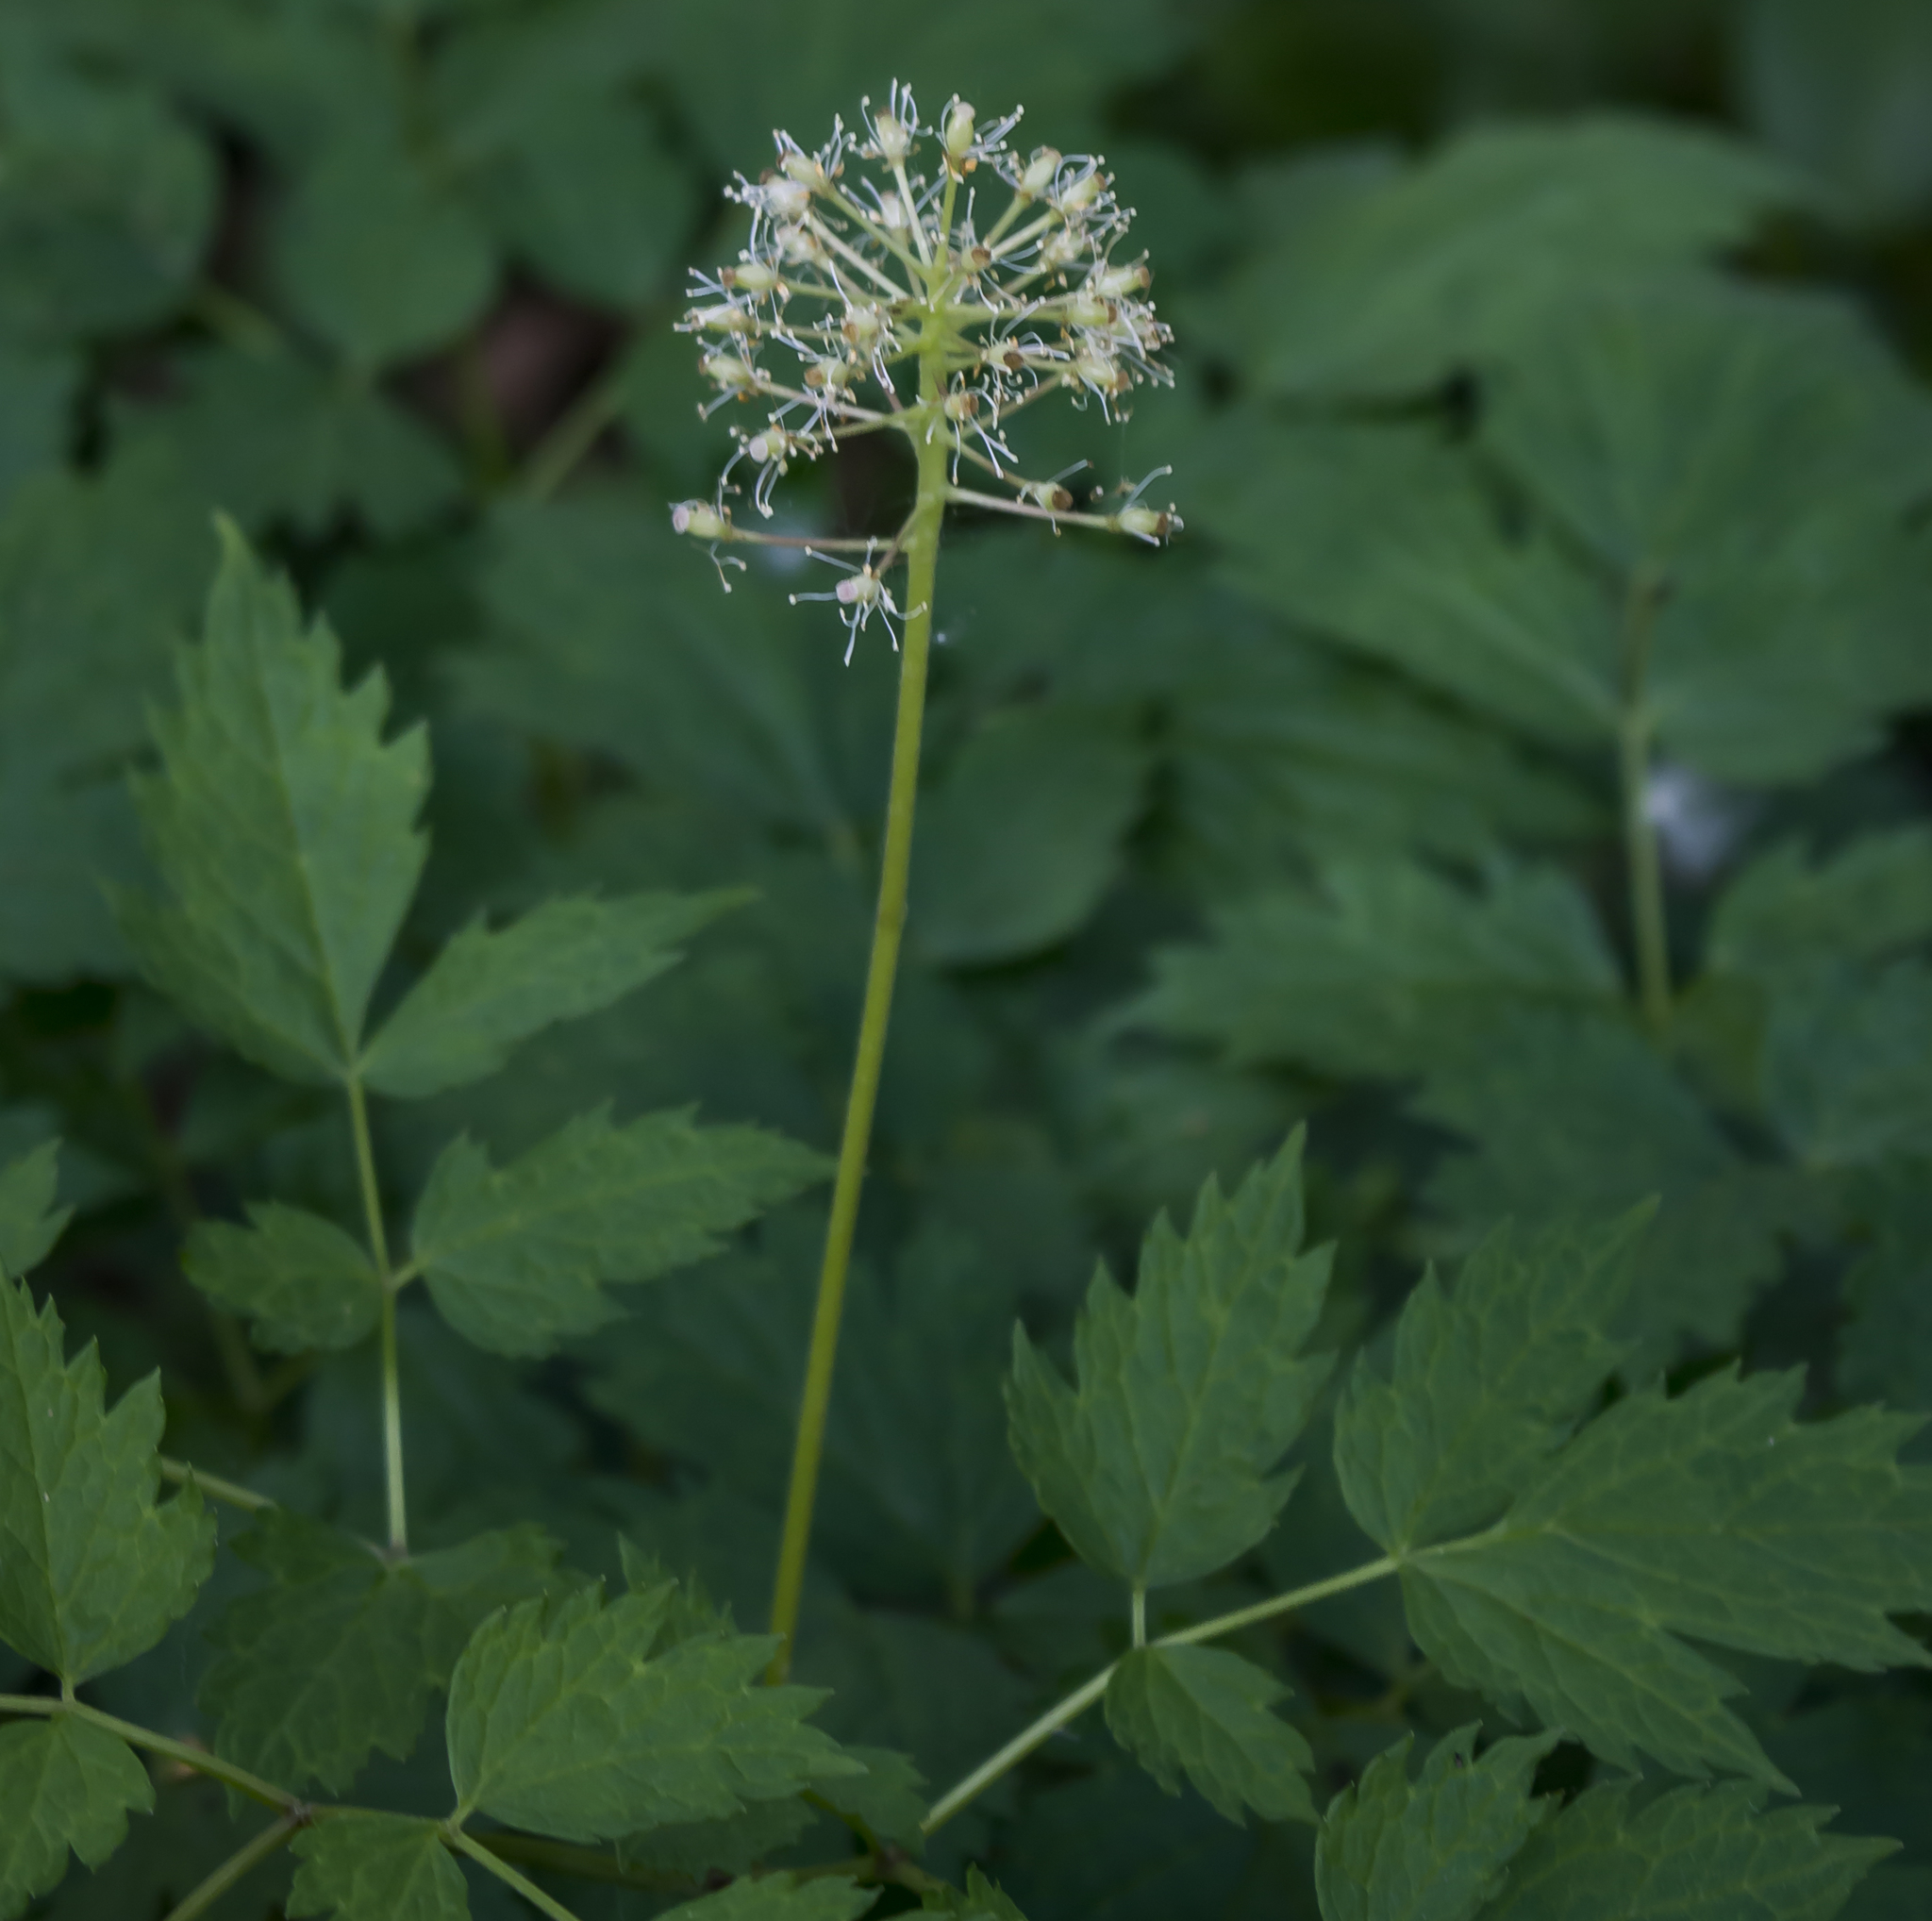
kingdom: Plantae
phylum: Tracheophyta
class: Magnoliopsida
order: Ranunculales
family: Ranunculaceae
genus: Actaea
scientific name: Actaea rubra
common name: Red baneberry
